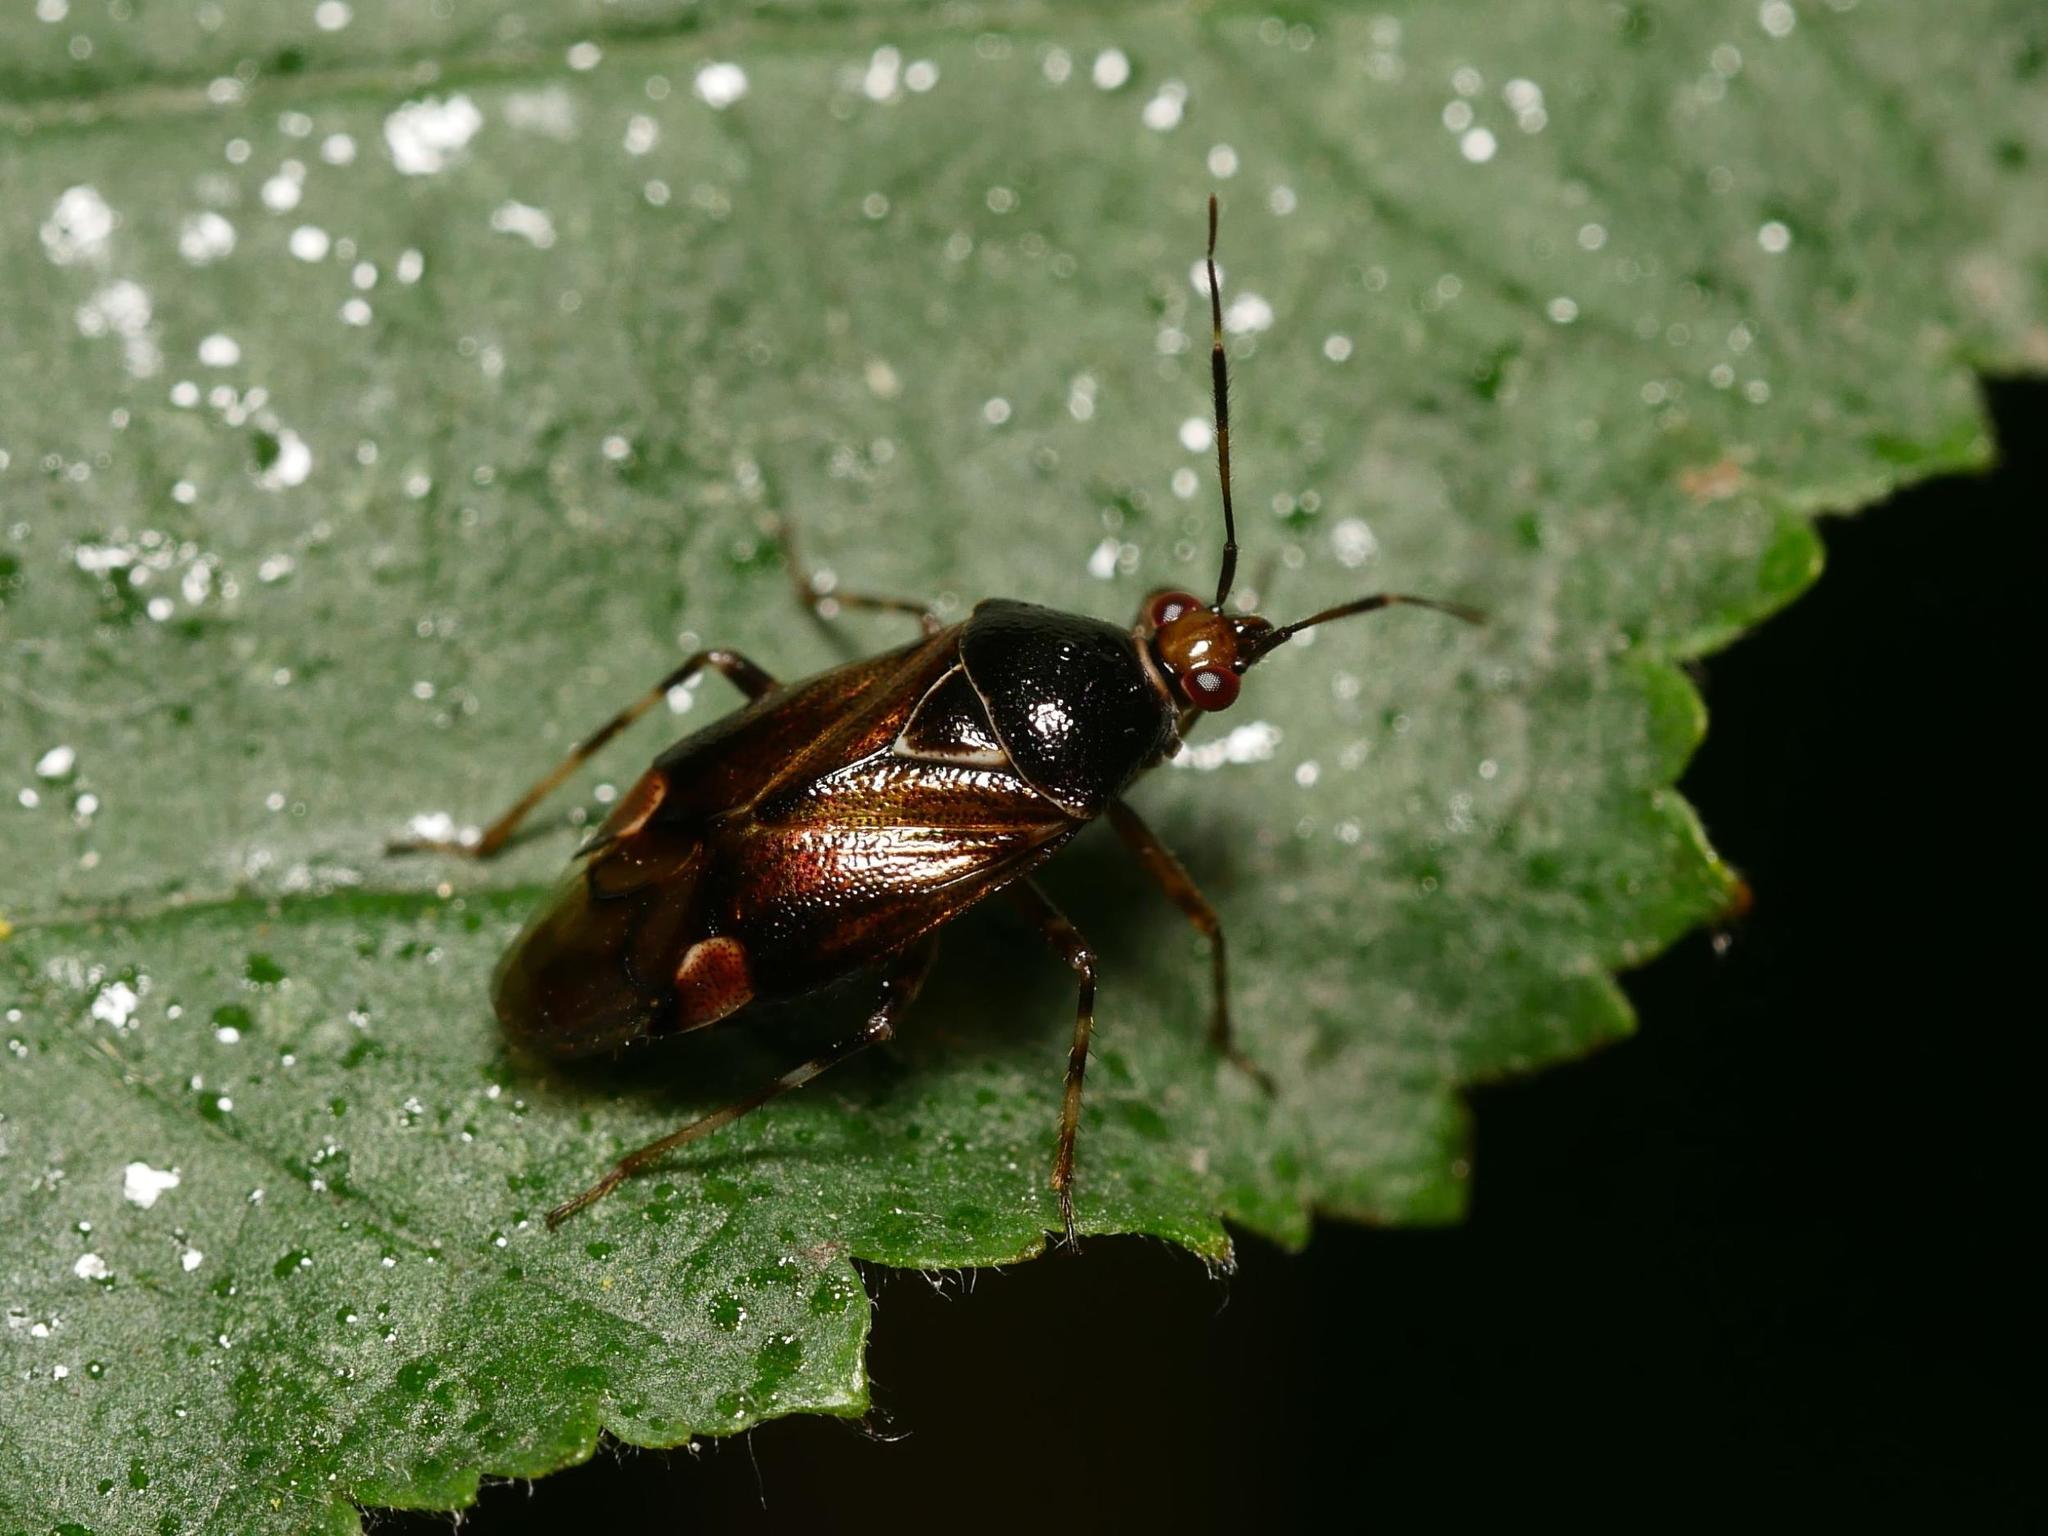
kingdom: Animalia
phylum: Arthropoda
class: Insecta
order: Hemiptera
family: Miridae
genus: Deraeocoris
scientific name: Deraeocoris flavilinea
